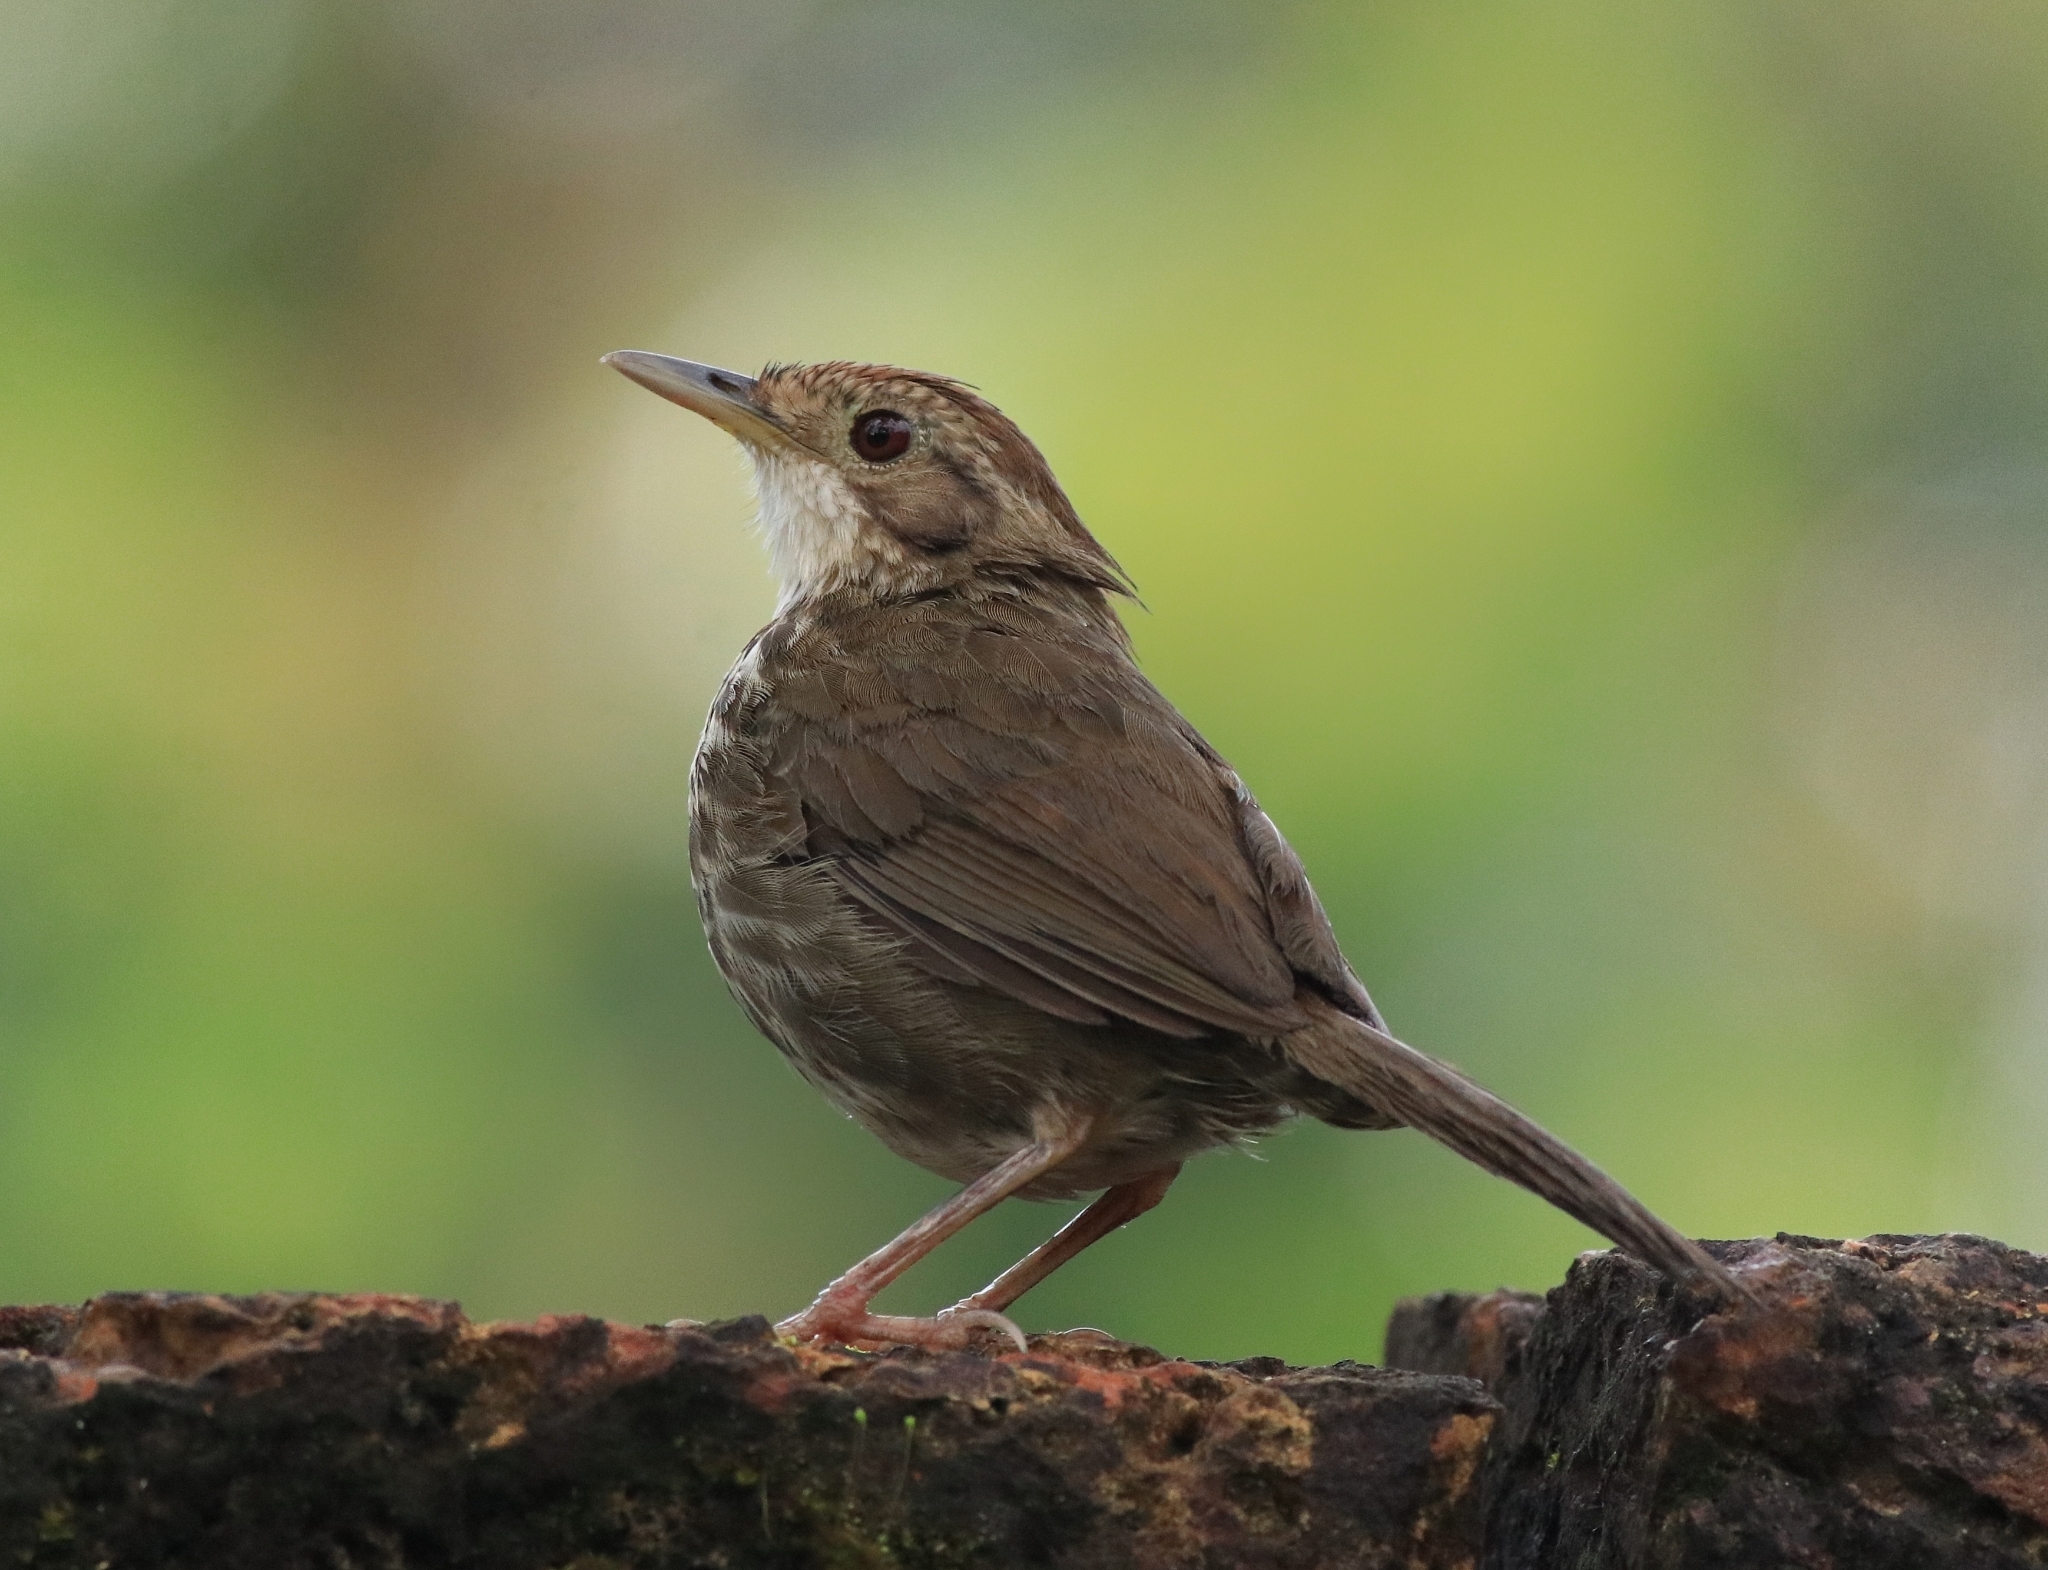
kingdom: Animalia
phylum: Chordata
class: Aves
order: Passeriformes
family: Pellorneidae
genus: Pellorneum
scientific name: Pellorneum ruficeps
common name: Puff-throated babbler
